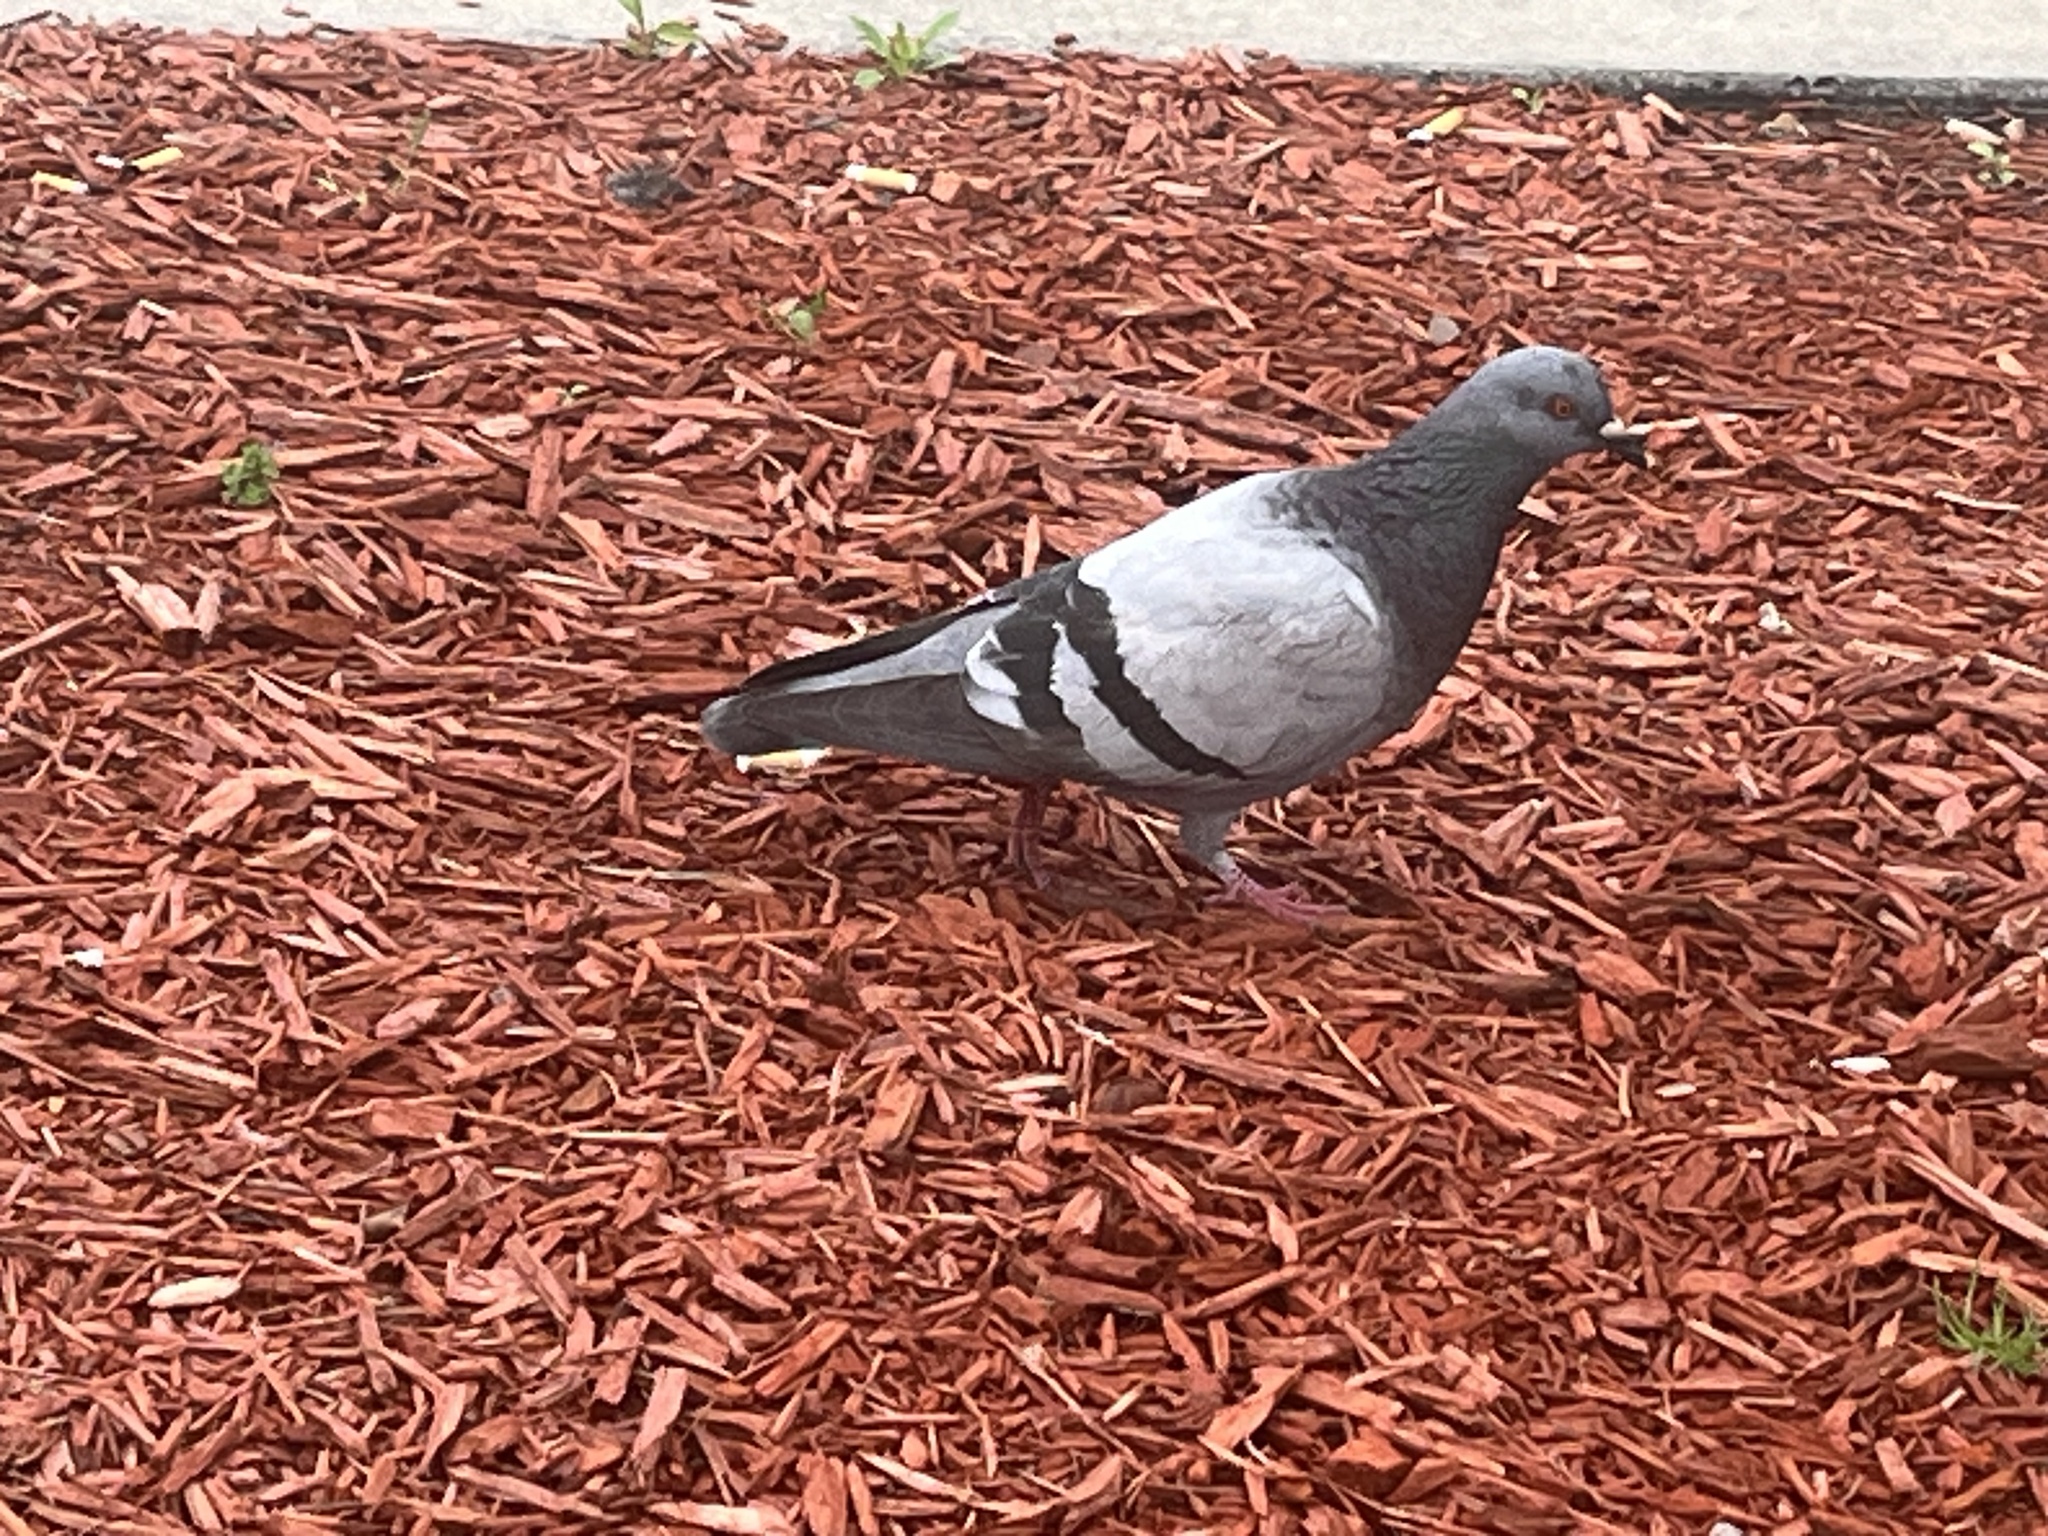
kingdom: Animalia
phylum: Chordata
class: Aves
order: Columbiformes
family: Columbidae
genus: Columba
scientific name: Columba livia
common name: Rock pigeon
